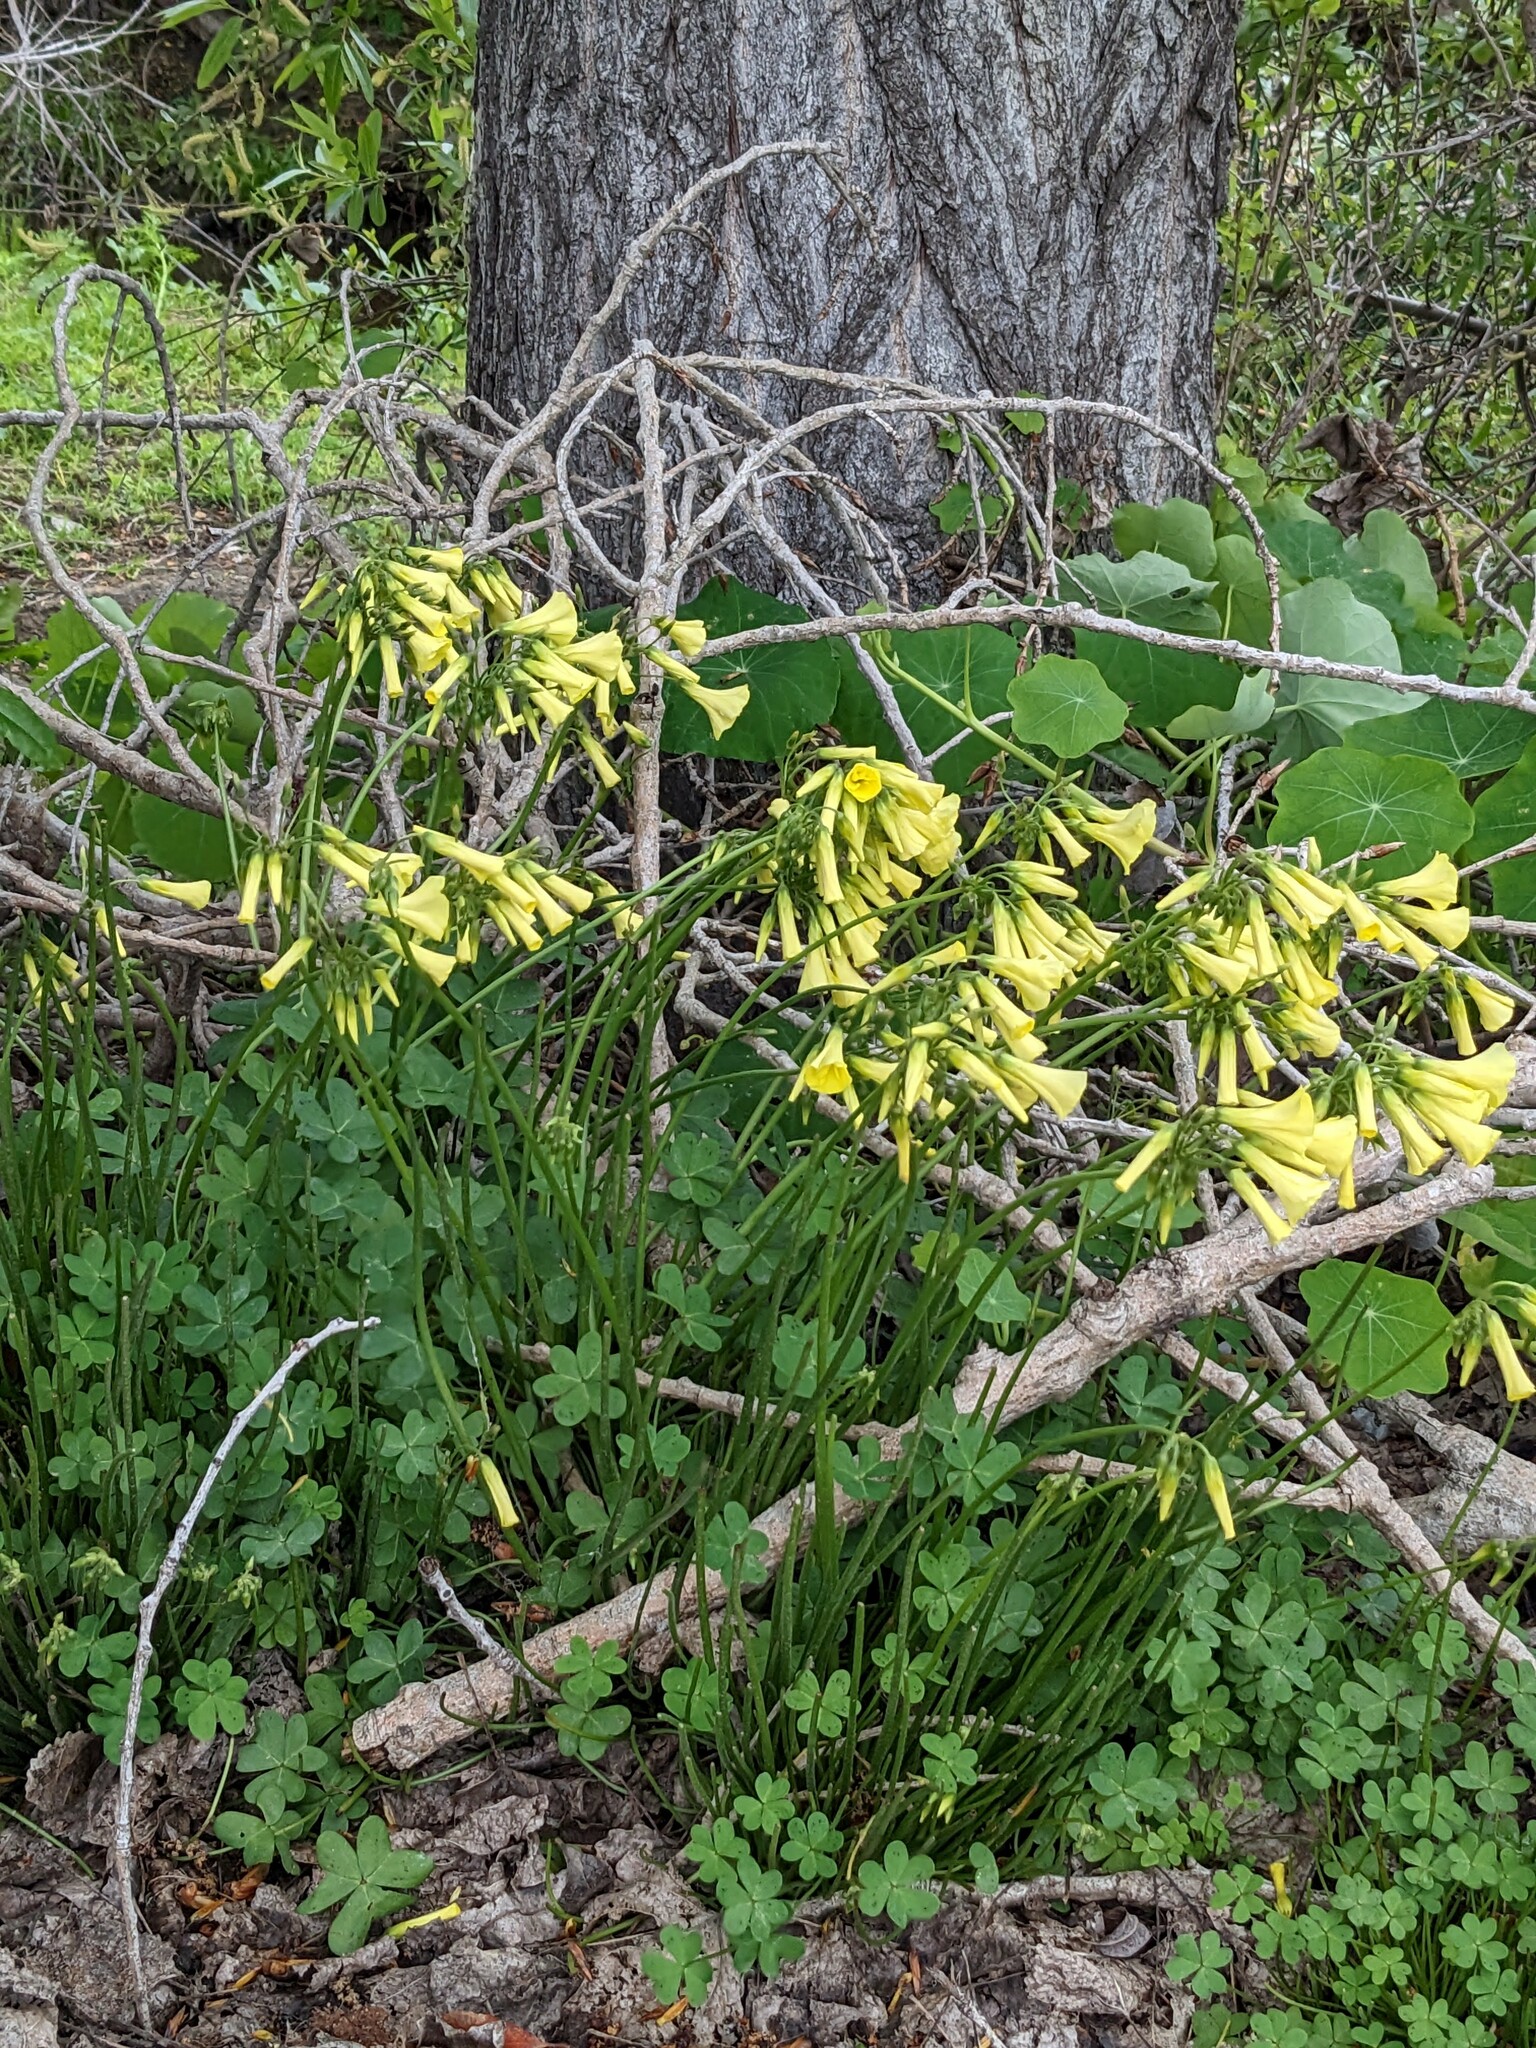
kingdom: Plantae
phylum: Tracheophyta
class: Magnoliopsida
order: Oxalidales
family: Oxalidaceae
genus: Oxalis
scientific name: Oxalis pes-caprae
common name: Bermuda-buttercup
